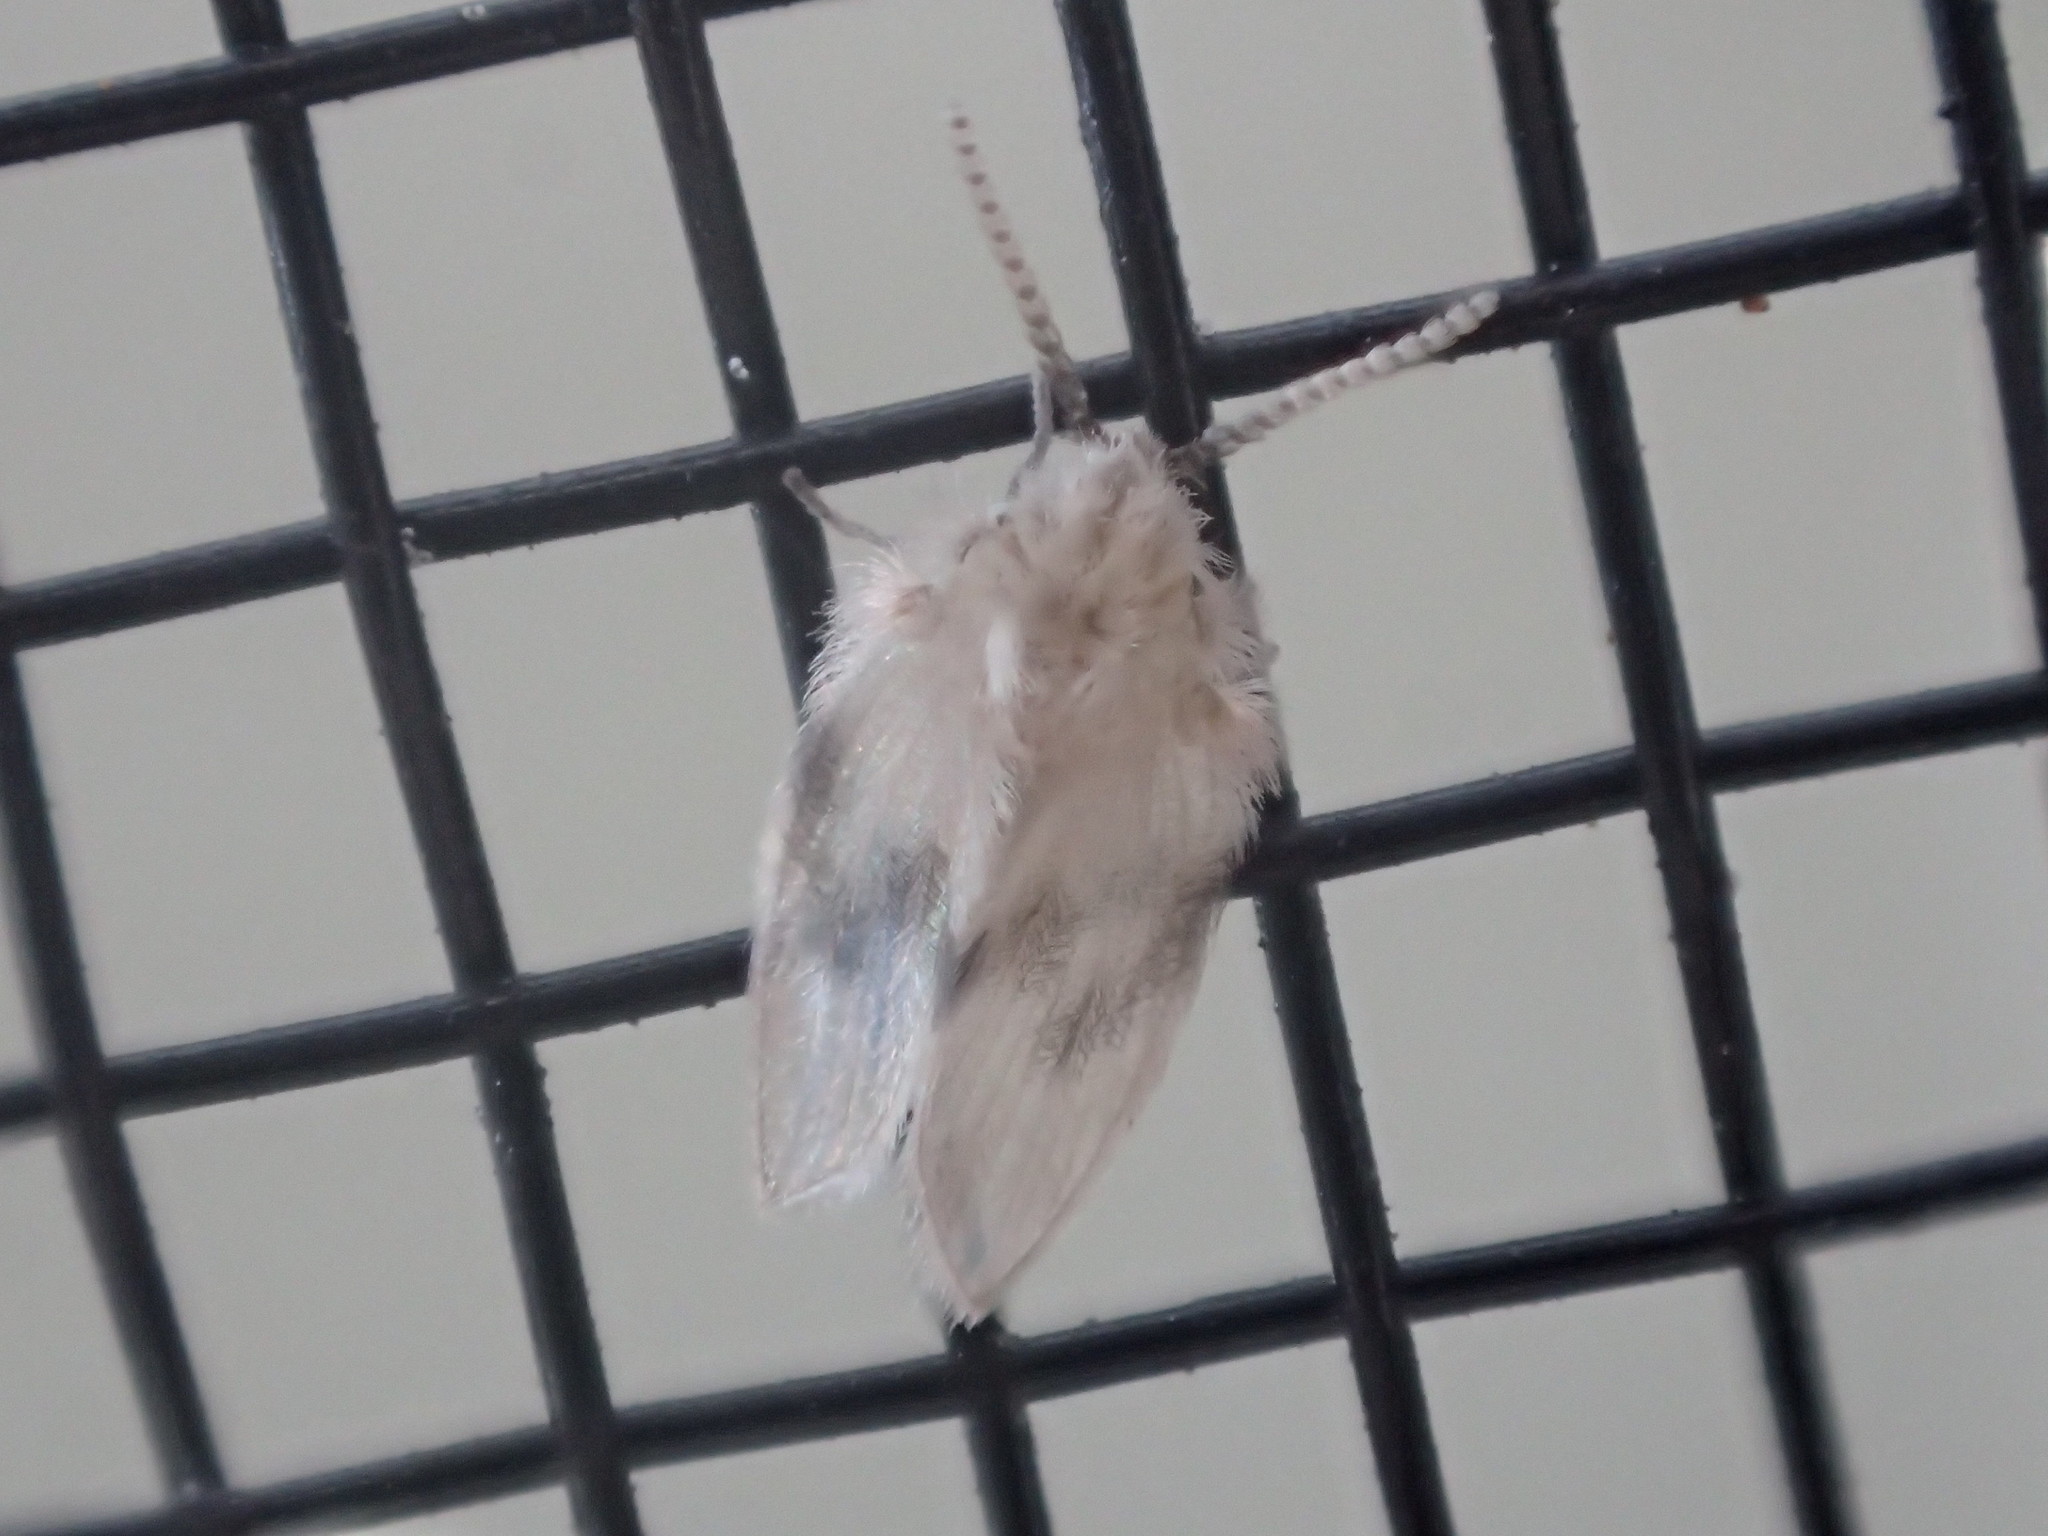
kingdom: Animalia
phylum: Arthropoda
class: Insecta
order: Diptera
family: Psychodidae
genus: Psychoda
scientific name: Psychoda sigma
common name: Moth fly
